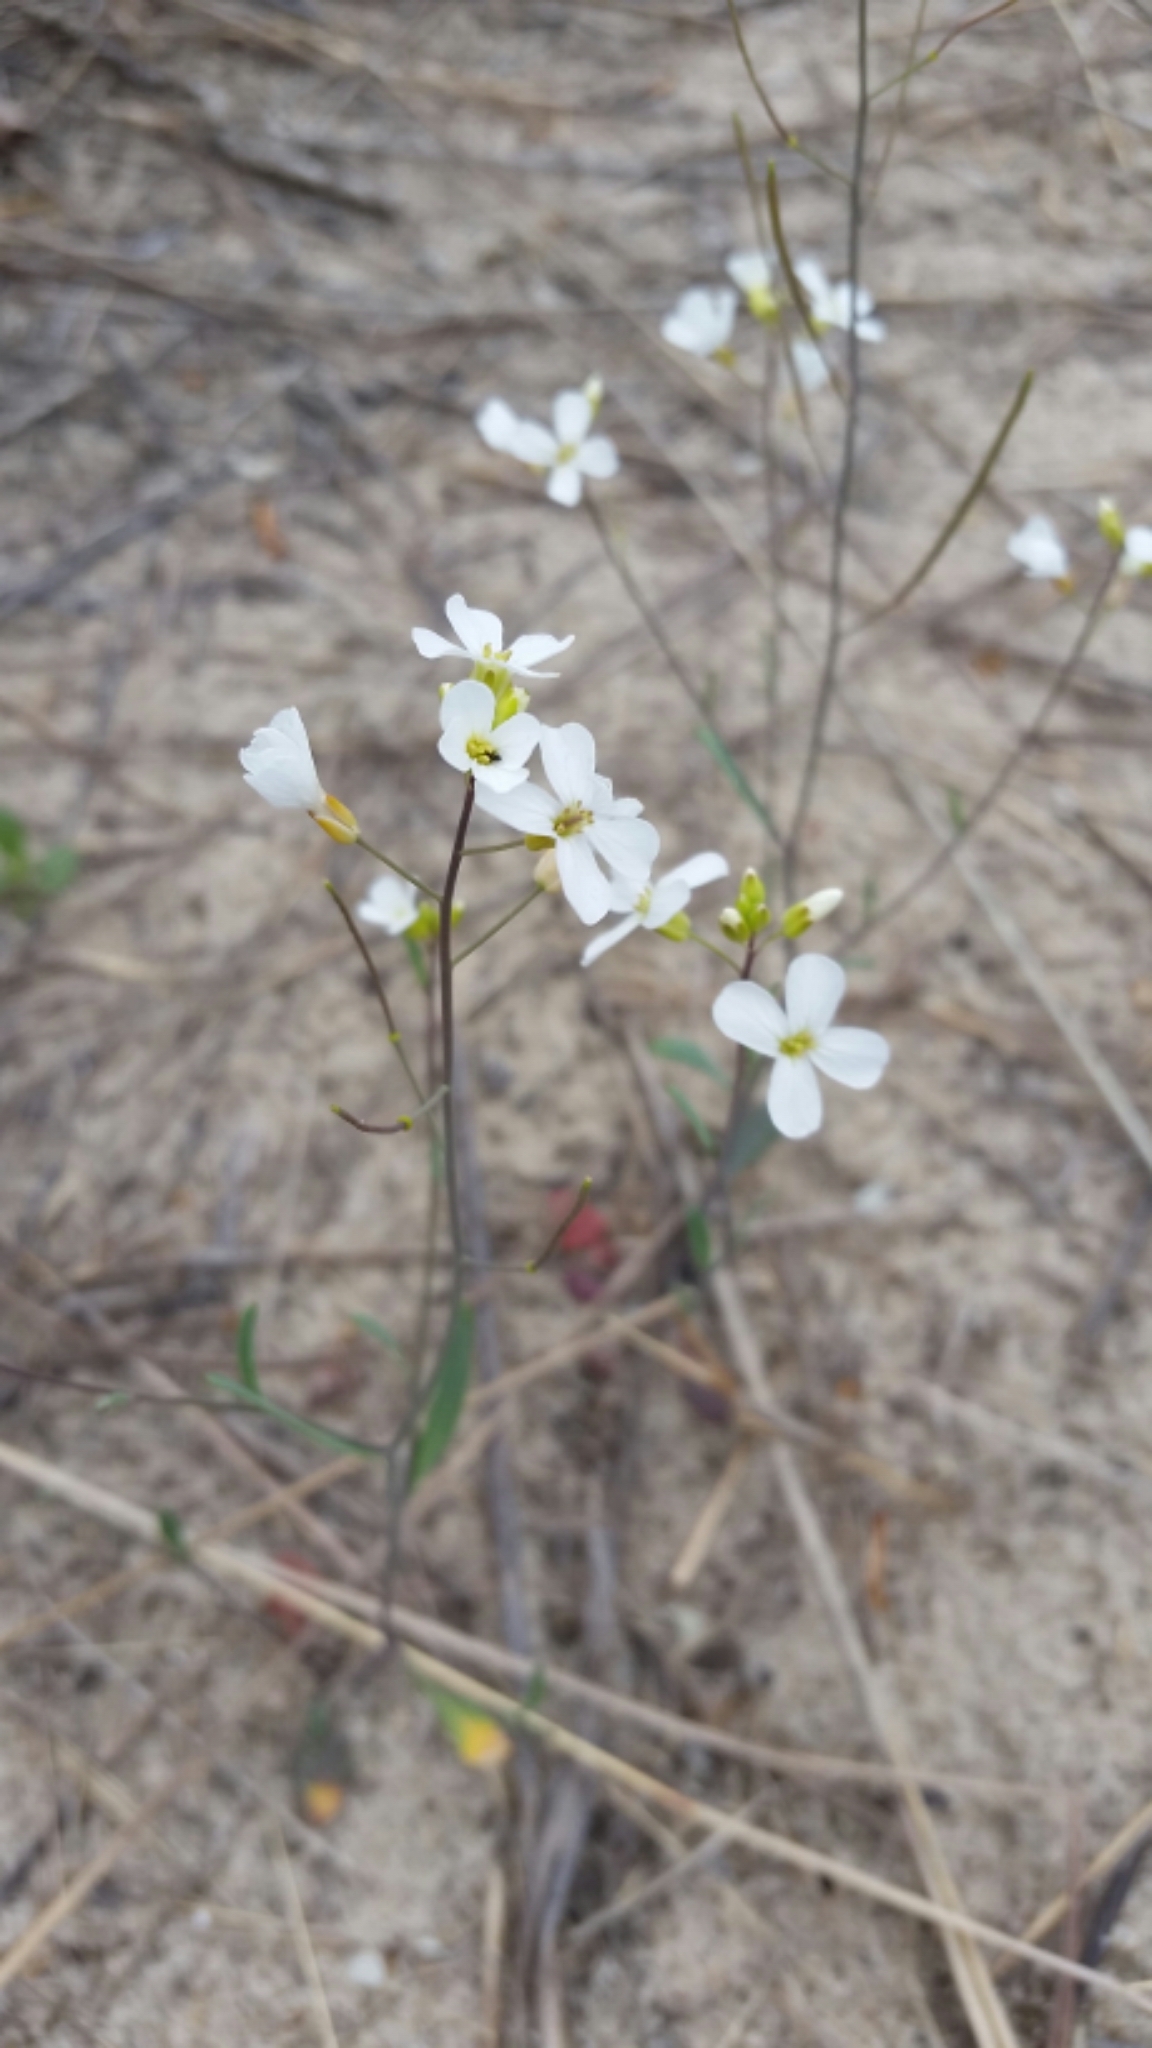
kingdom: Plantae
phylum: Tracheophyta
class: Magnoliopsida
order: Brassicales
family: Brassicaceae
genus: Arabidopsis
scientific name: Arabidopsis lyrata
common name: Lyrate rockcress
